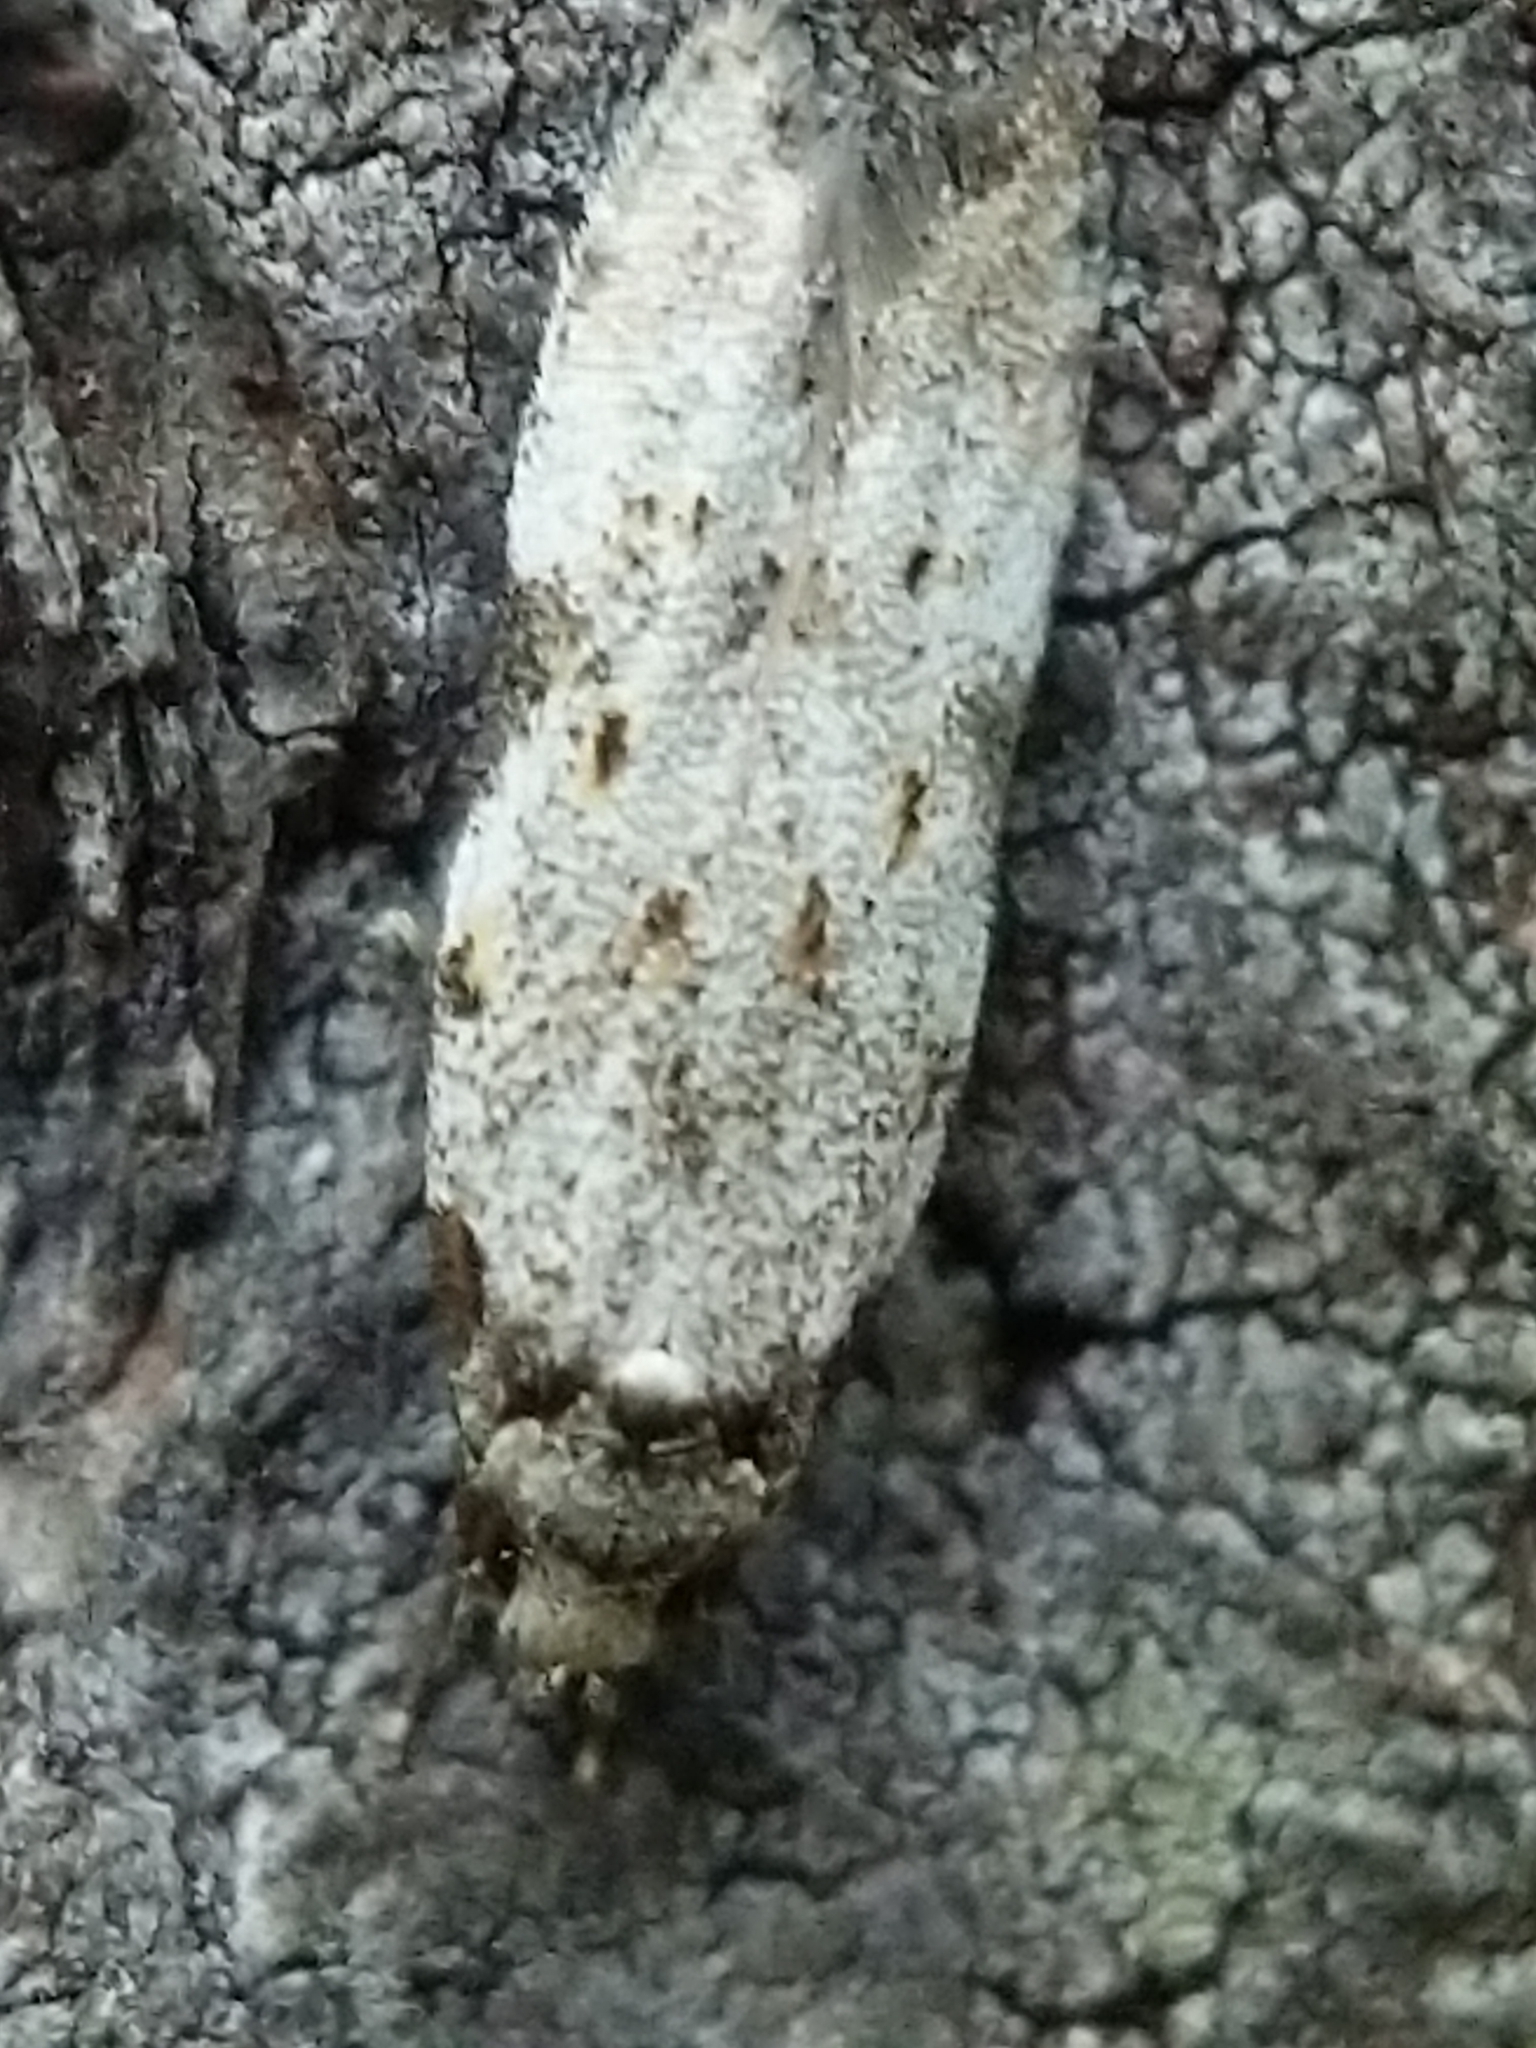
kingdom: Animalia
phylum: Arthropoda
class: Insecta
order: Lepidoptera
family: Autostichidae
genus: Taygete
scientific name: Taygete attributella
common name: Triangle-marked twirler moth
